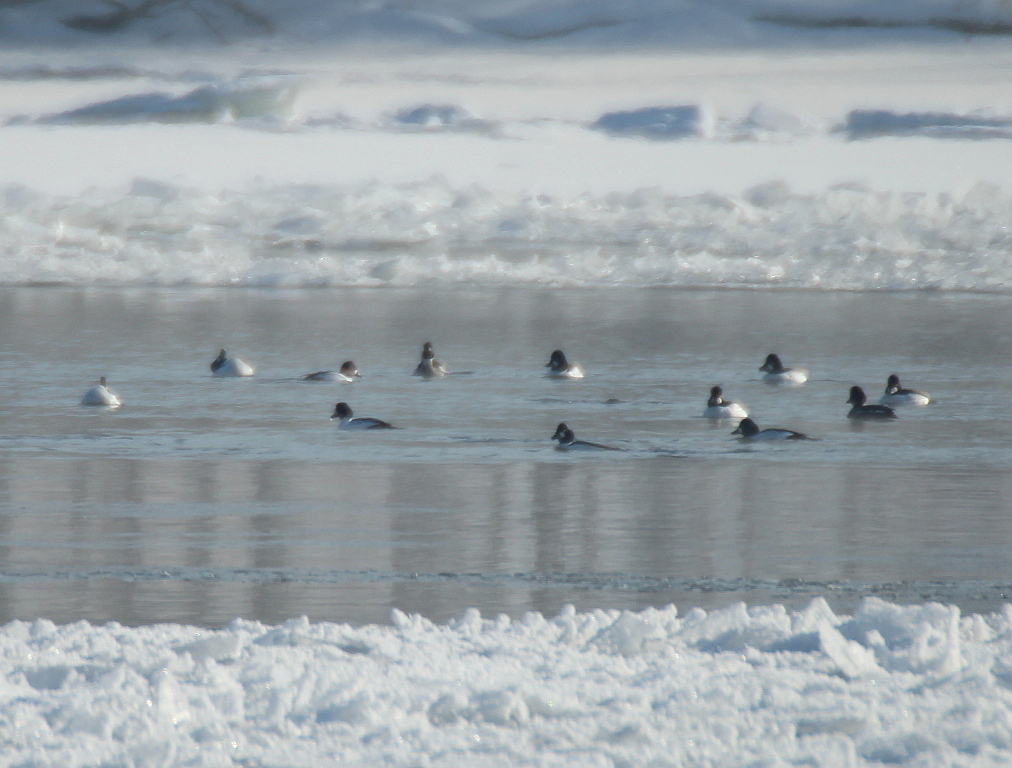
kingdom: Animalia
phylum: Chordata
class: Aves
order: Anseriformes
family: Anatidae
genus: Bucephala
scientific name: Bucephala clangula
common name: Common goldeneye
